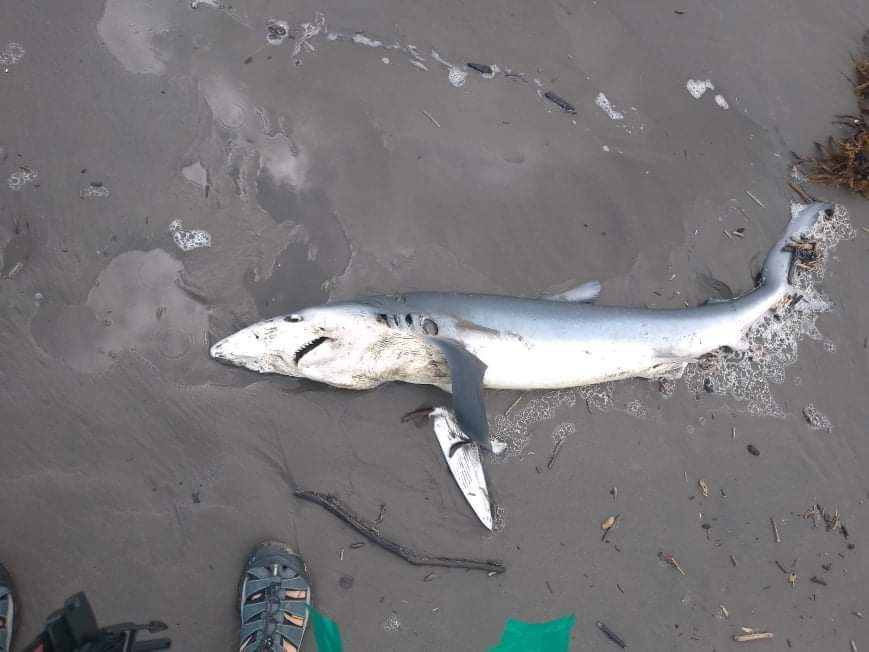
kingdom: Animalia
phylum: Chordata
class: Elasmobranchii
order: Carcharhiniformes
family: Carcharhinidae
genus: Prionace
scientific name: Prionace glauca
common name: Blue shark
